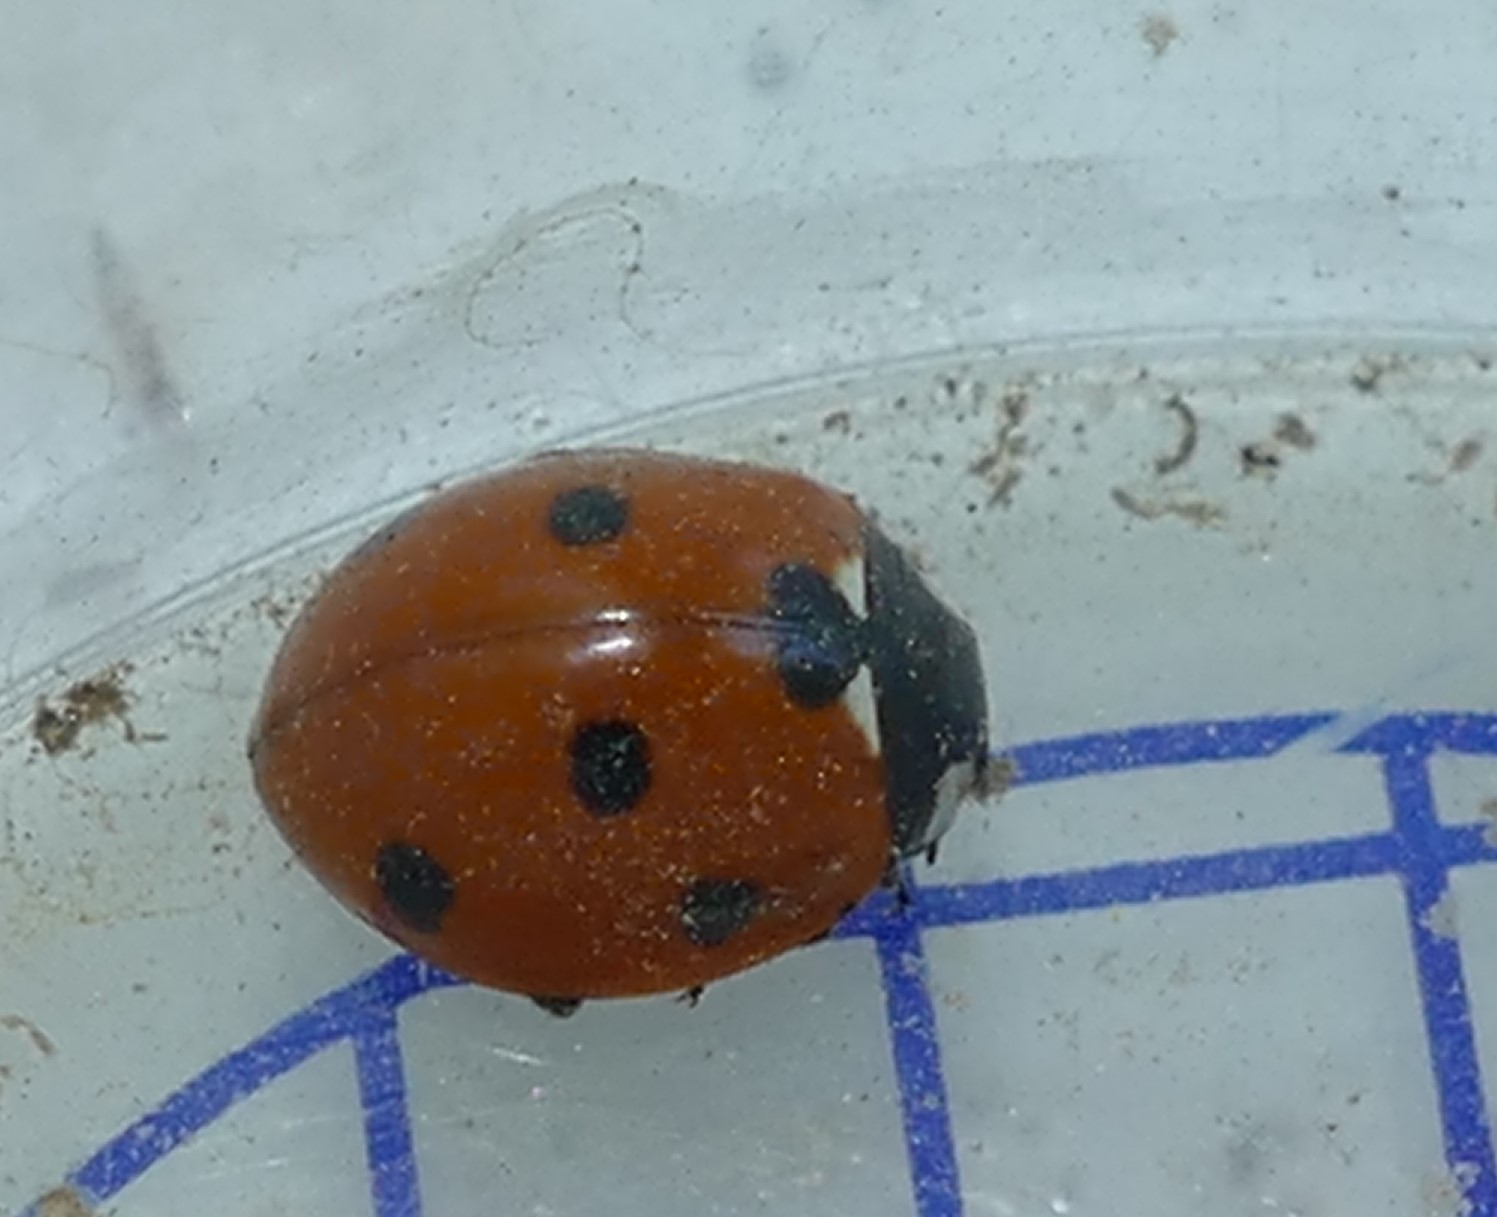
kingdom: Animalia
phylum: Arthropoda
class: Insecta
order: Coleoptera
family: Coccinellidae
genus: Coccinella
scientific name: Coccinella septempunctata
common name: Sevenspotted lady beetle
